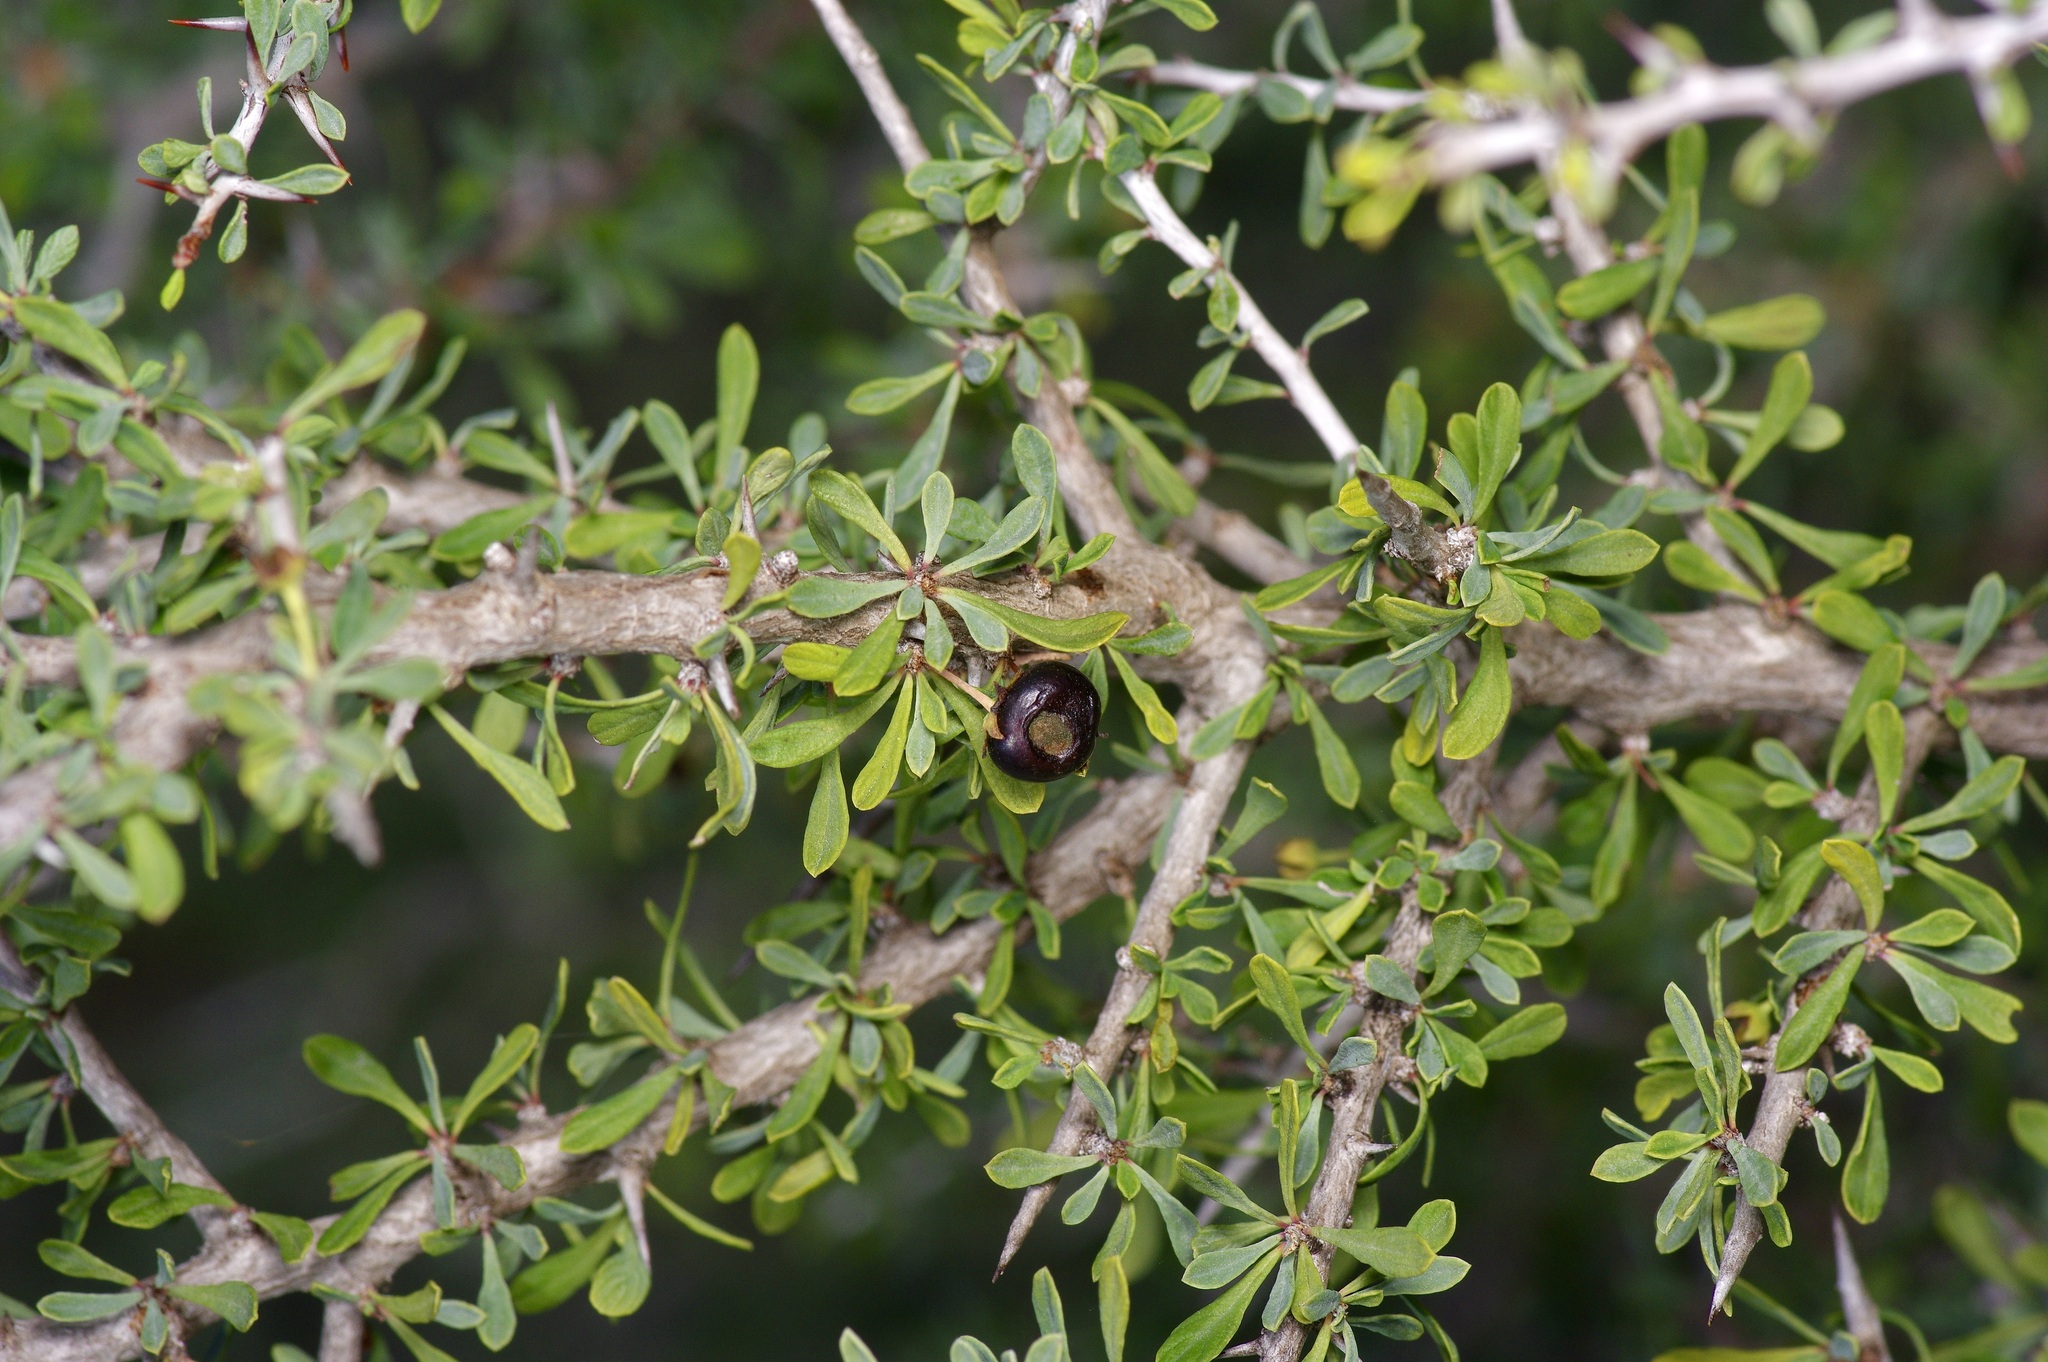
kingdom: Plantae
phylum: Tracheophyta
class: Magnoliopsida
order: Rosales
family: Rhamnaceae
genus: Condalia
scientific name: Condalia spathulata
